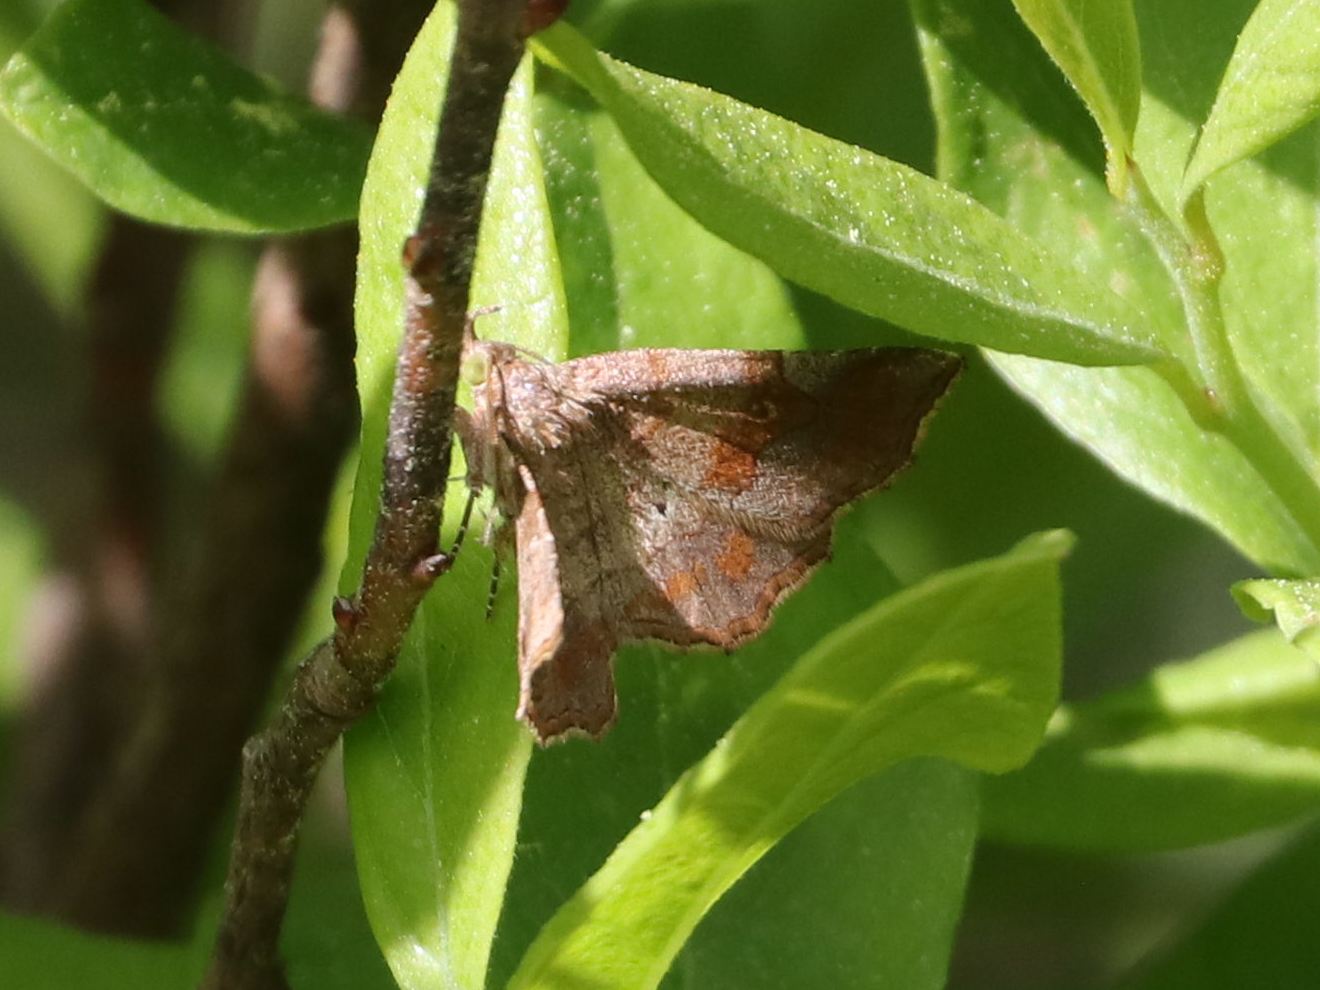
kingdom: Animalia
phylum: Arthropoda
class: Insecta
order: Lepidoptera
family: Erebidae
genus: Pangrapta
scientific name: Pangrapta decoralis
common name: Decorated owlet
